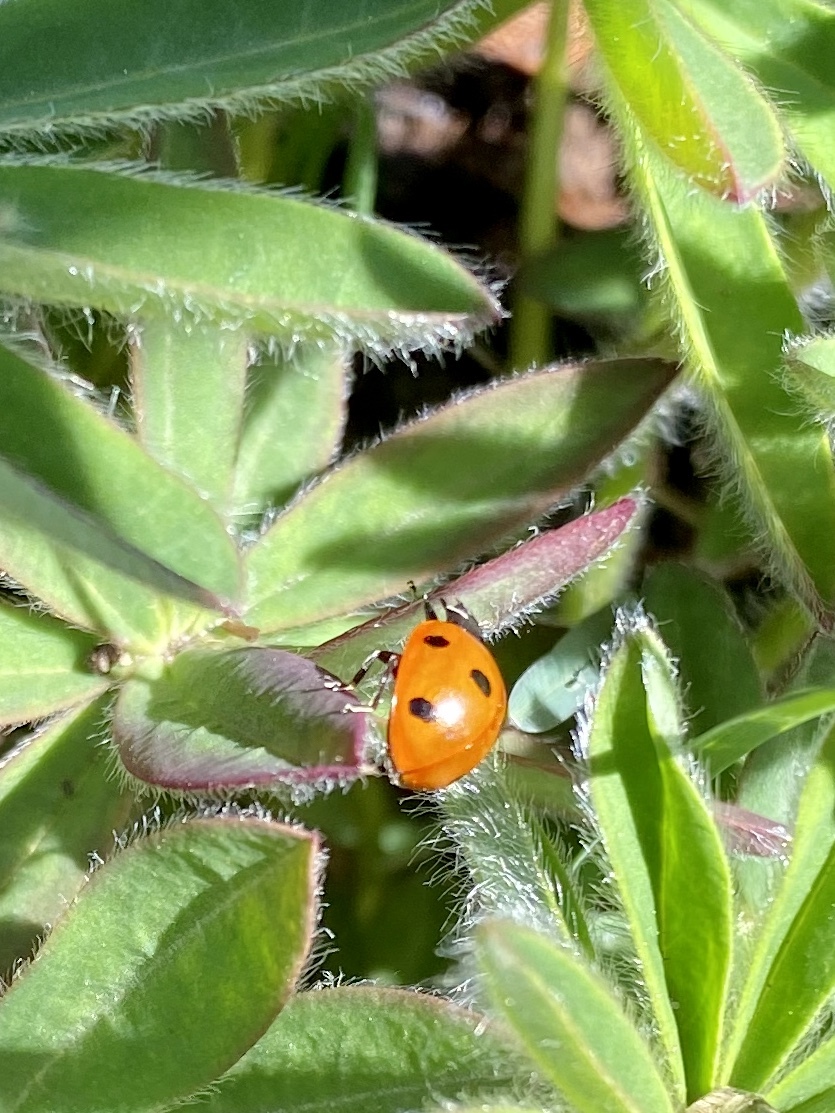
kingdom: Animalia
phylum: Arthropoda
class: Insecta
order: Coleoptera
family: Coccinellidae
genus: Coccinella
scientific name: Coccinella septempunctata
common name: Sevenspotted lady beetle
